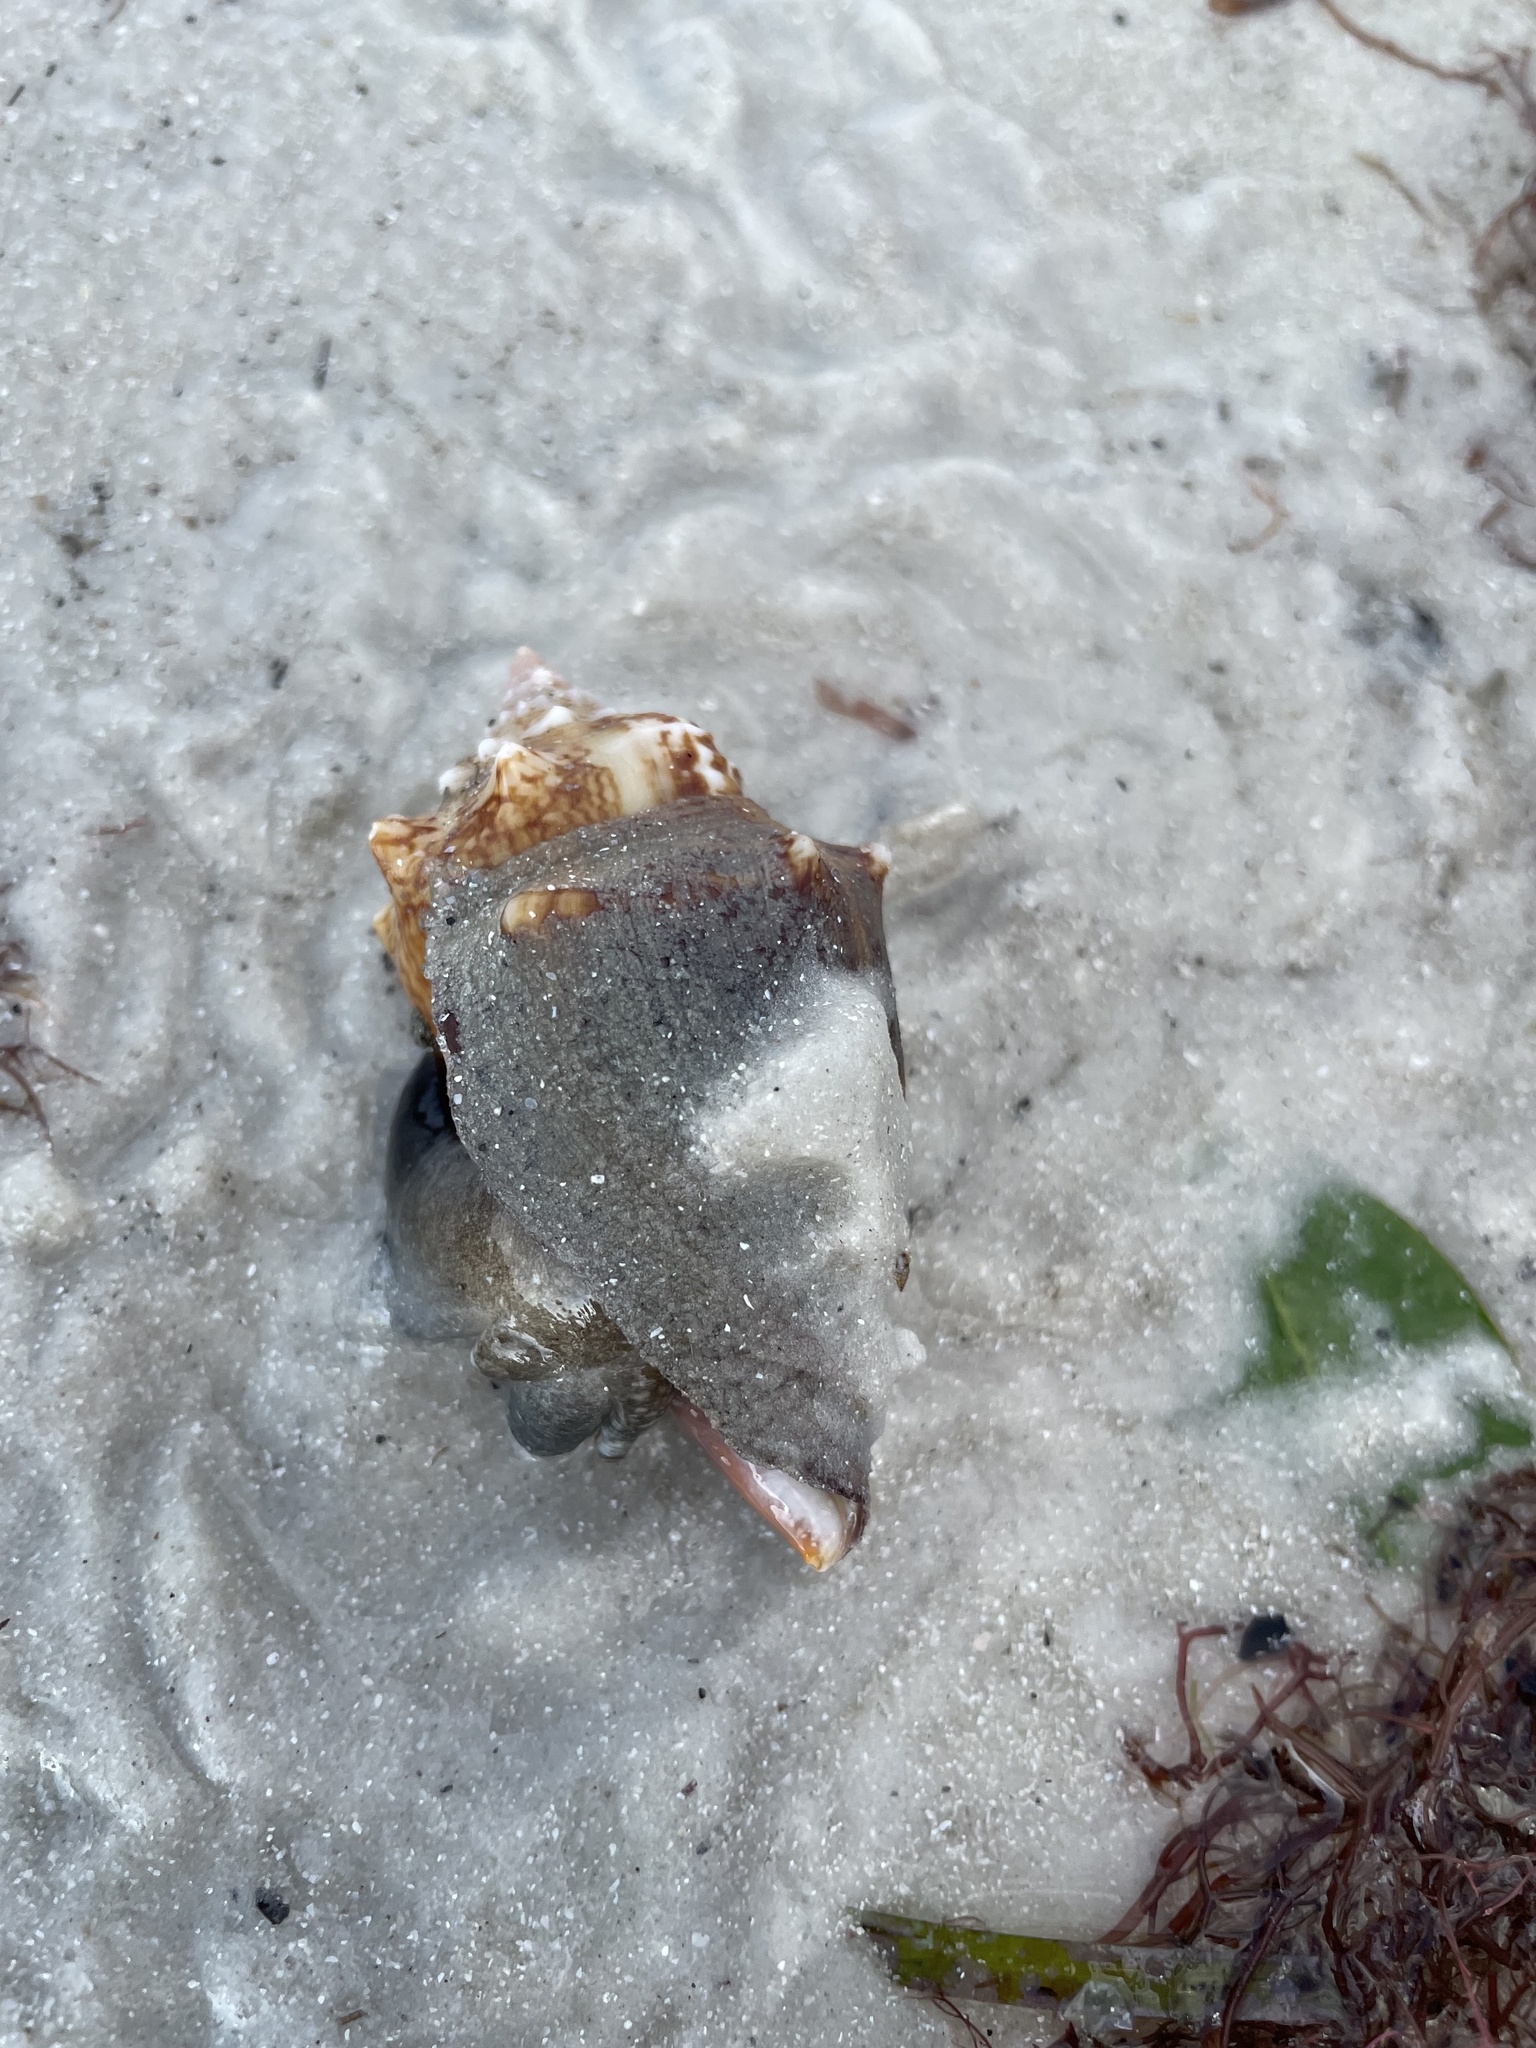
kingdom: Animalia
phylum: Mollusca
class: Gastropoda
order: Littorinimorpha
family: Strombidae
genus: Strombus
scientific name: Strombus alatus
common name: Florida fighting conch
